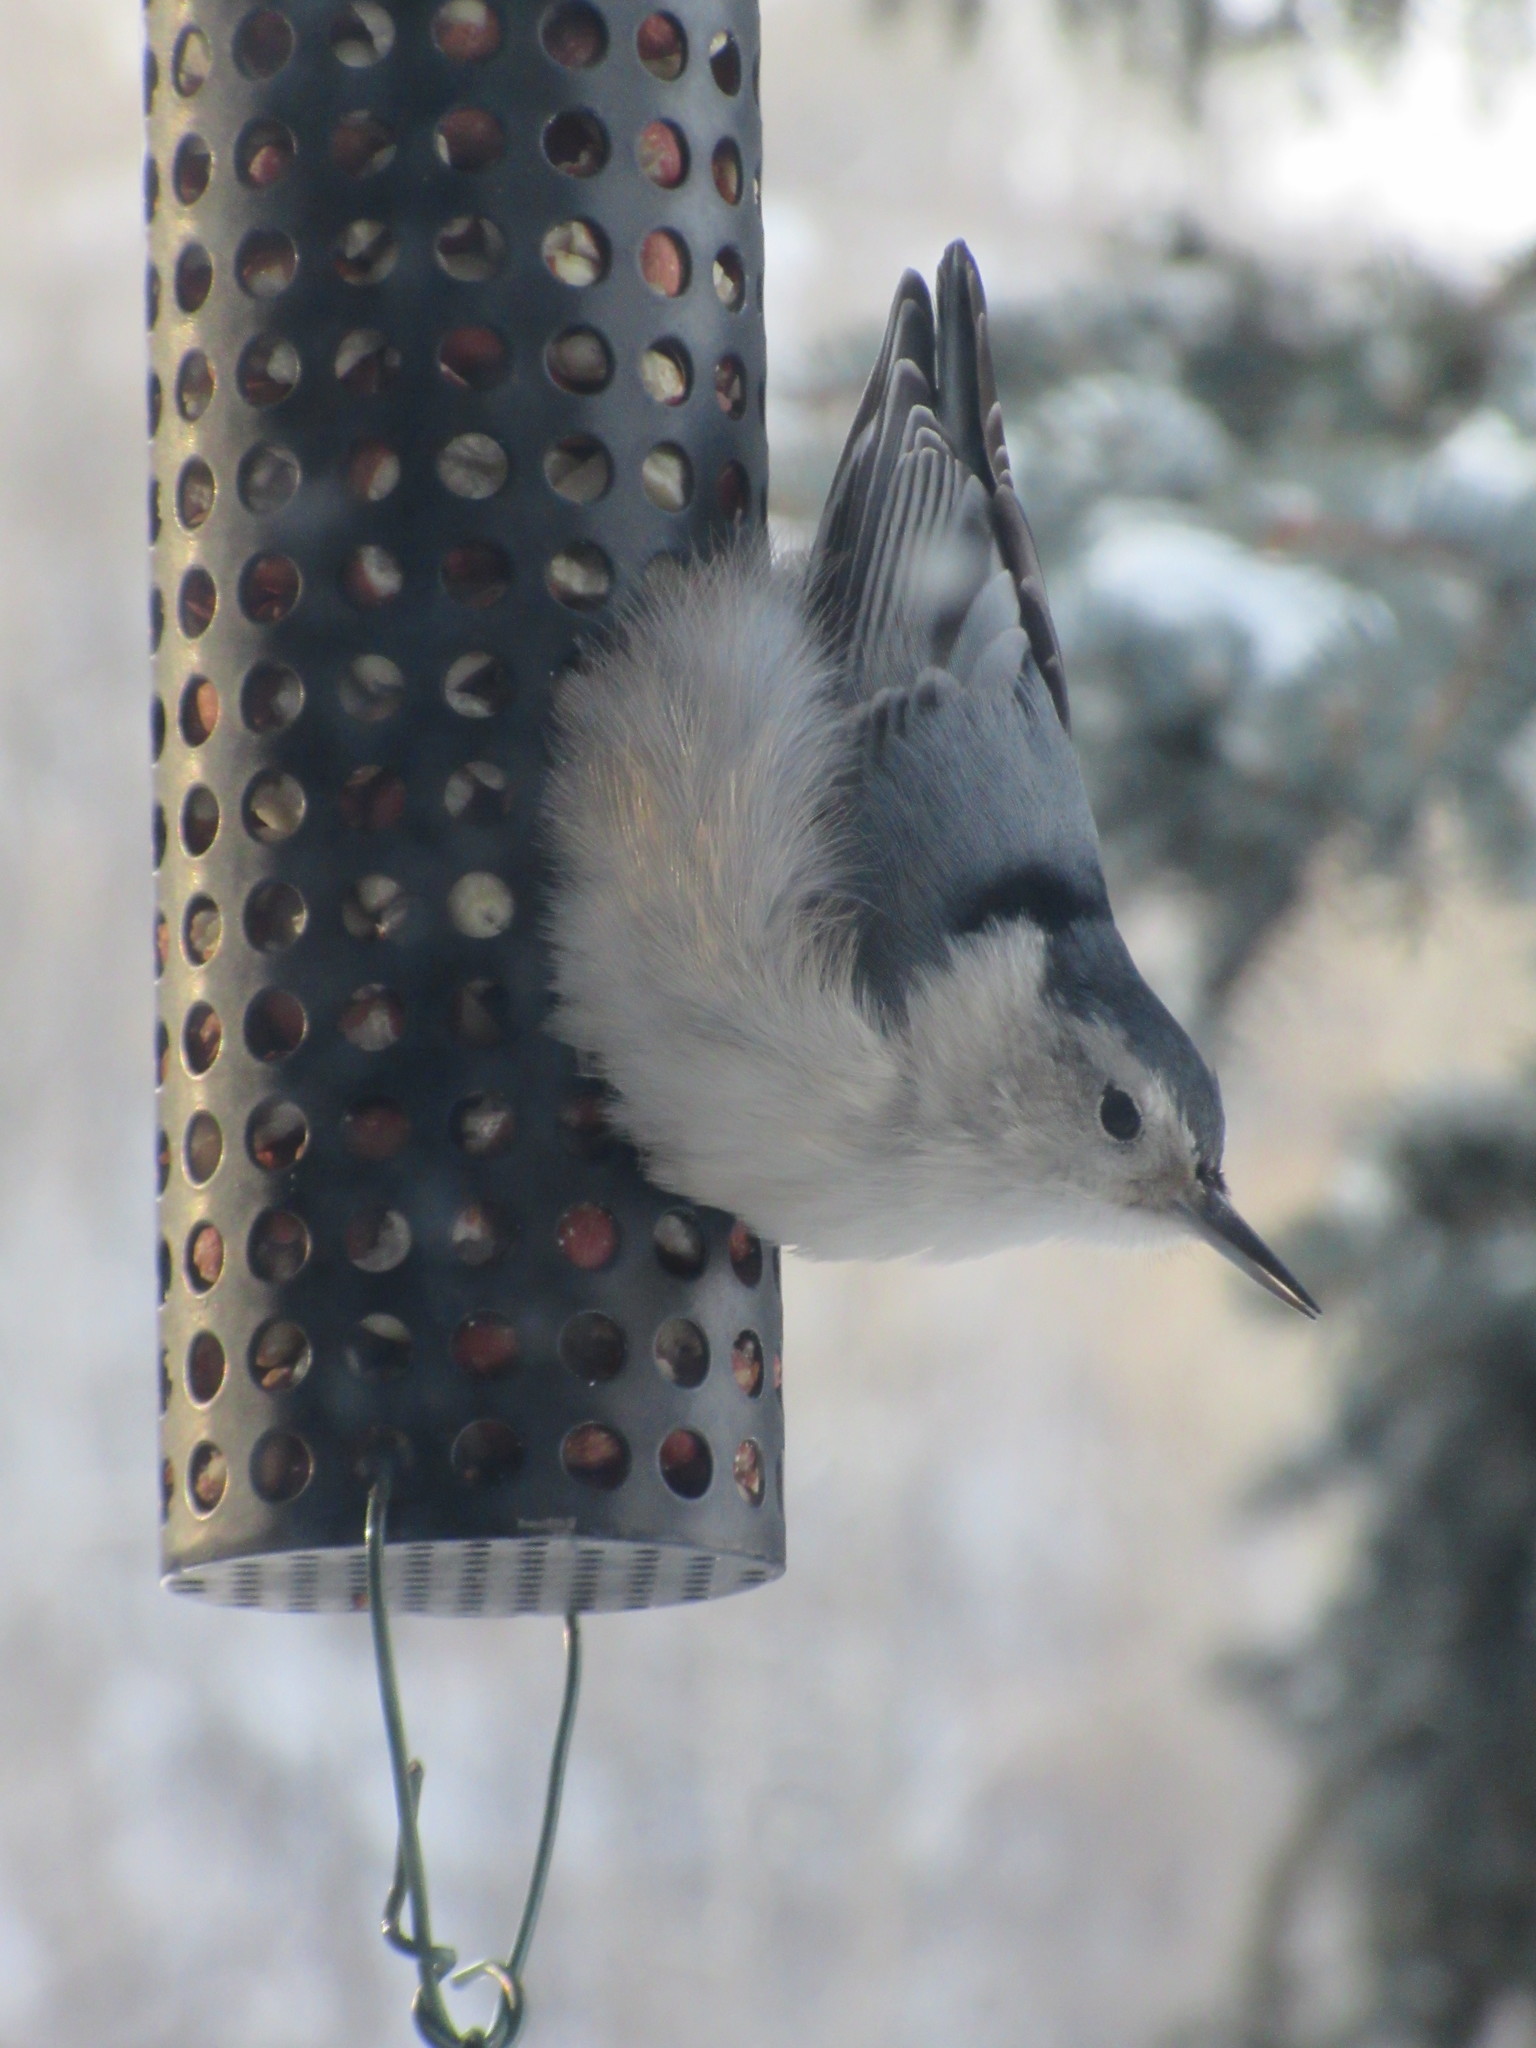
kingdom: Animalia
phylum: Chordata
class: Aves
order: Passeriformes
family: Sittidae
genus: Sitta
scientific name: Sitta carolinensis
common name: White-breasted nuthatch
